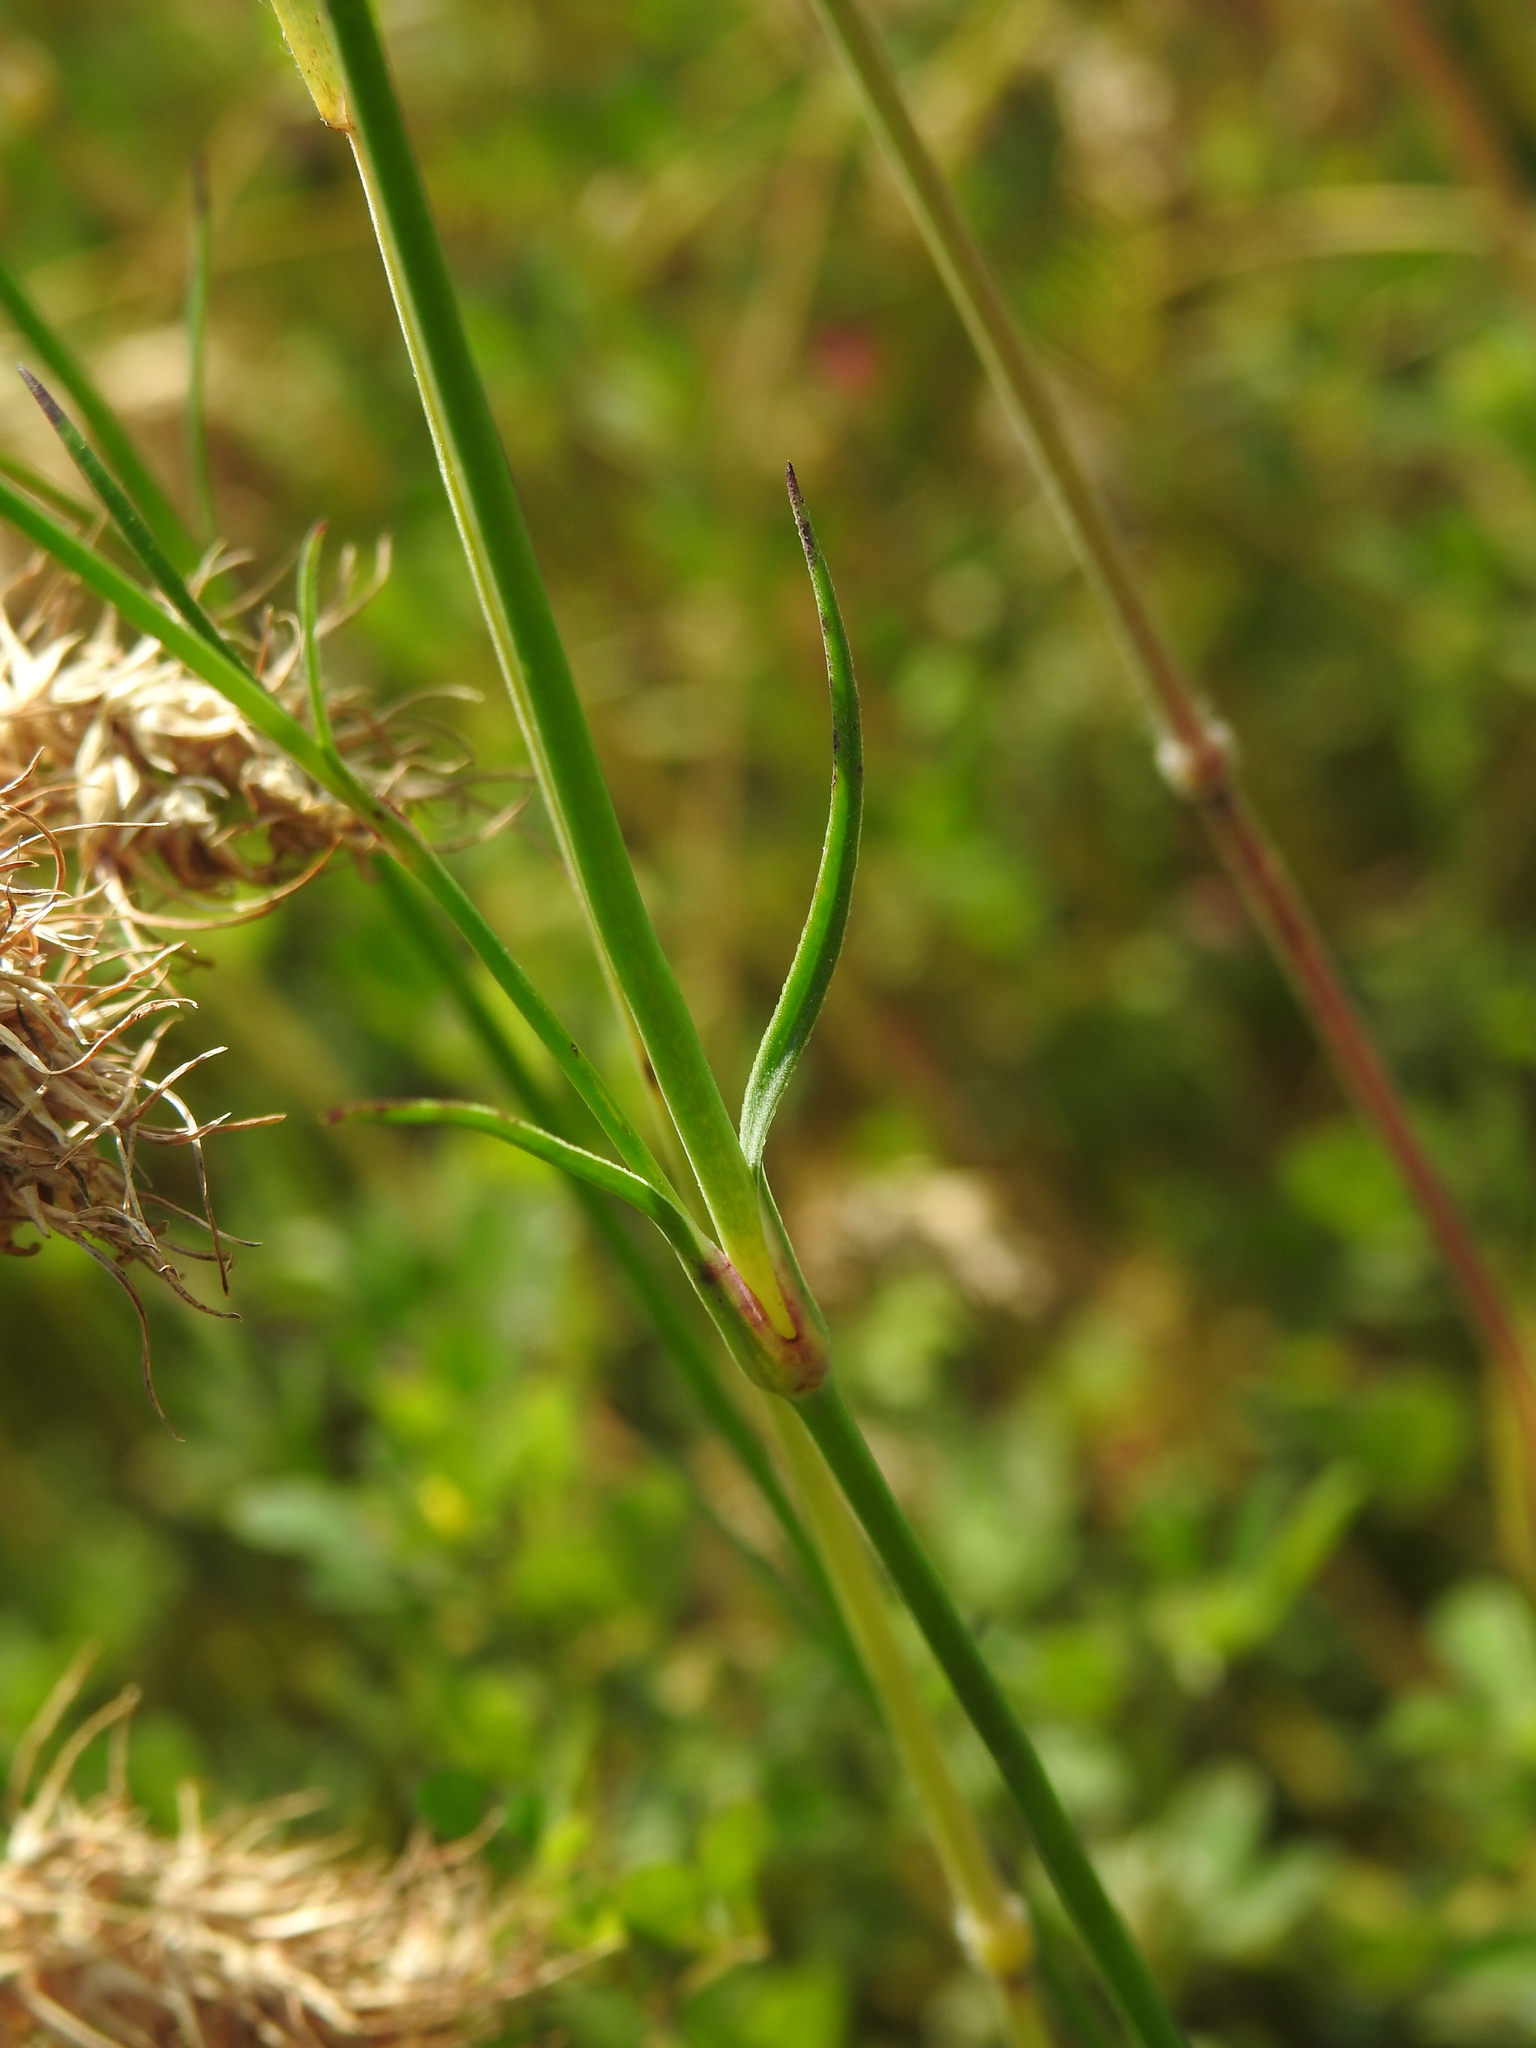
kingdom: Plantae
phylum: Tracheophyta
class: Magnoliopsida
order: Caryophyllales
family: Caryophyllaceae
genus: Petrorhagia
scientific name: Petrorhagia prolifera
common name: Proliferous pink
